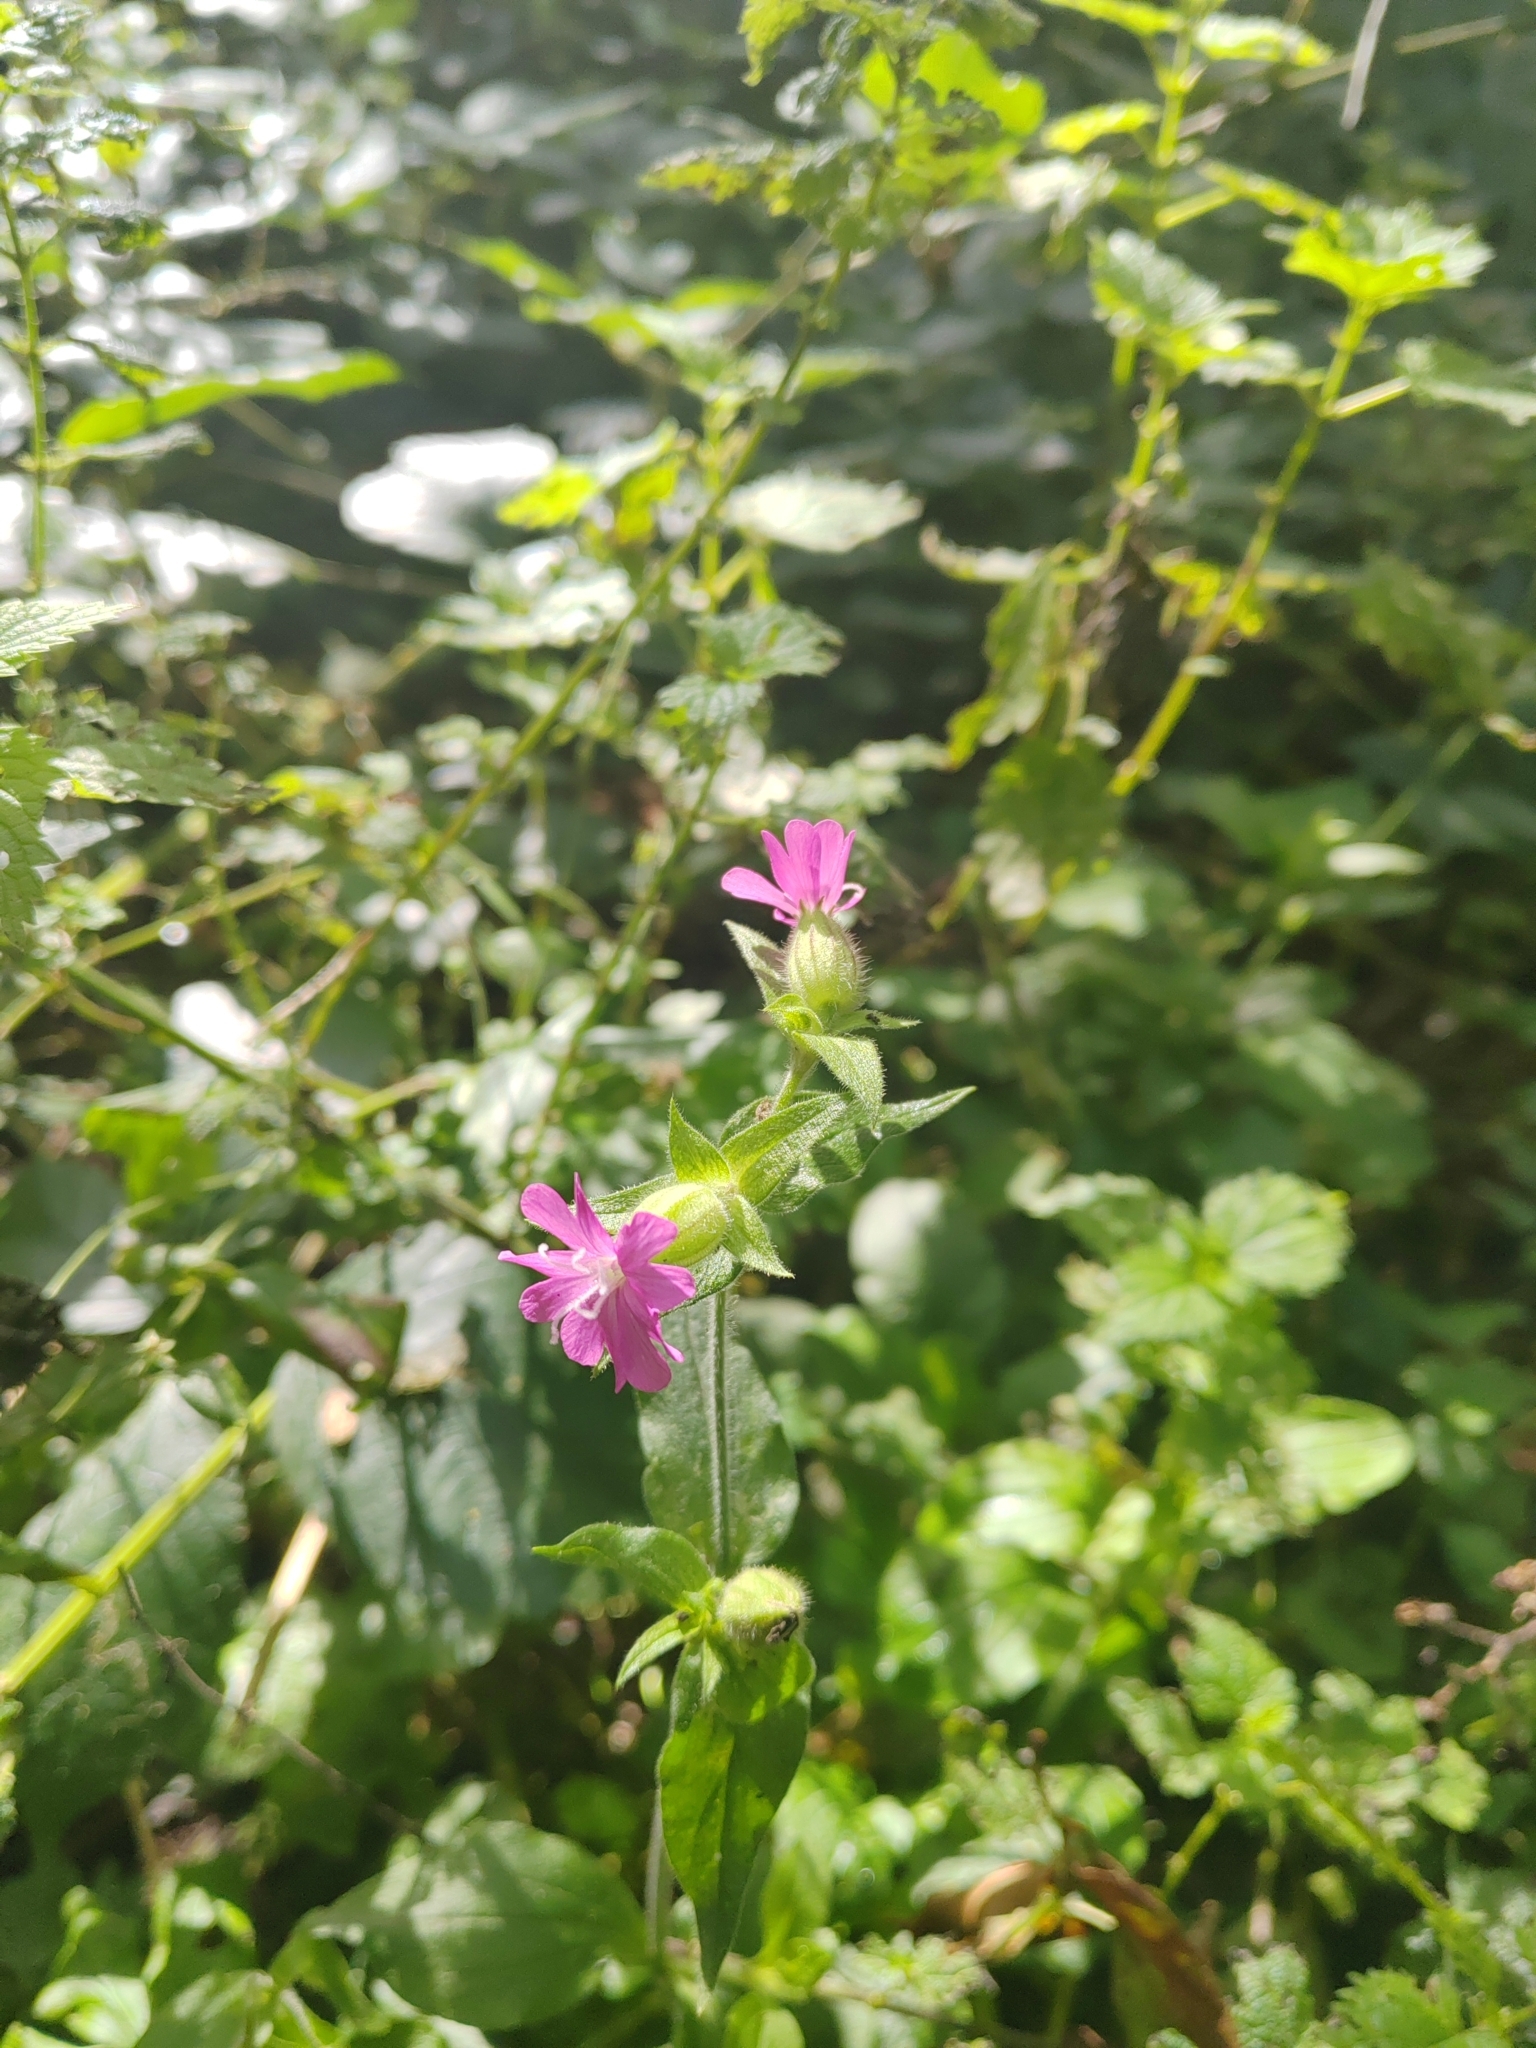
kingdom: Plantae
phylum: Tracheophyta
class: Magnoliopsida
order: Caryophyllales
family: Caryophyllaceae
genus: Silene
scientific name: Silene dioica
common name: Red campion
